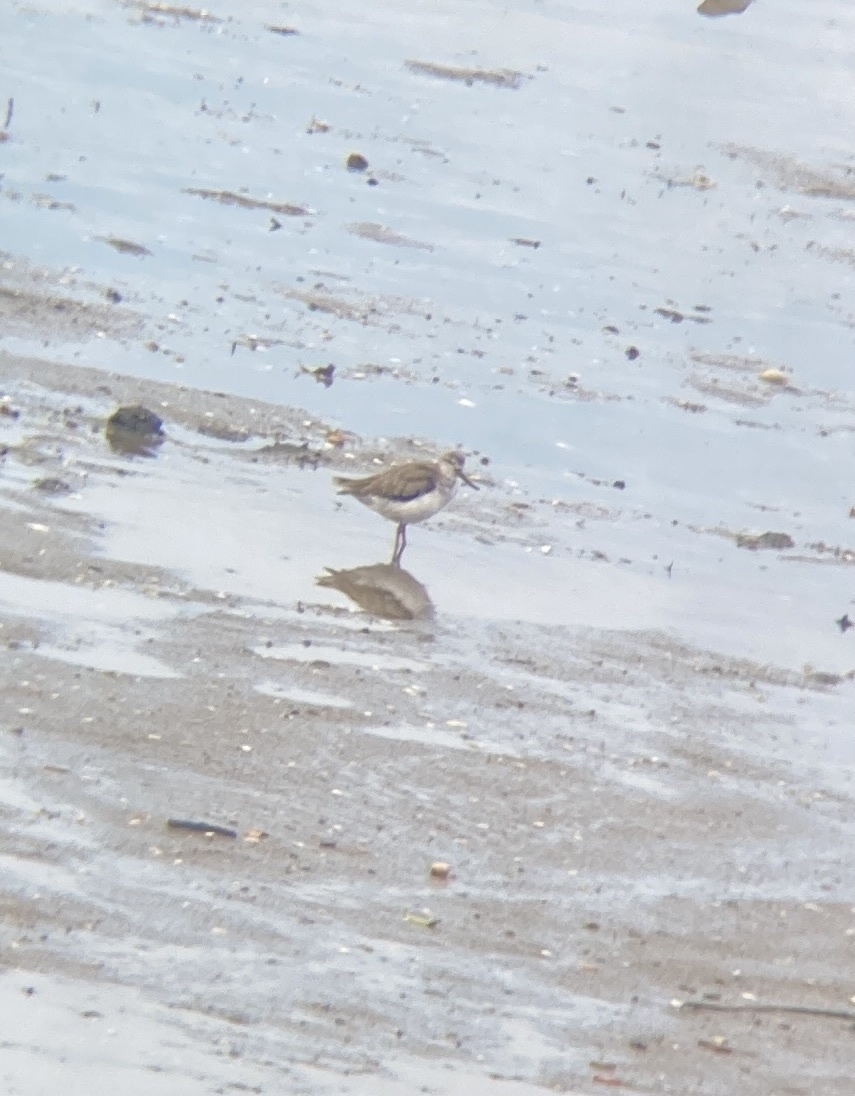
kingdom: Animalia
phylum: Chordata
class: Aves
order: Charadriiformes
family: Scolopacidae
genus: Xenus
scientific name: Xenus cinereus
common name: Terek sandpiper
